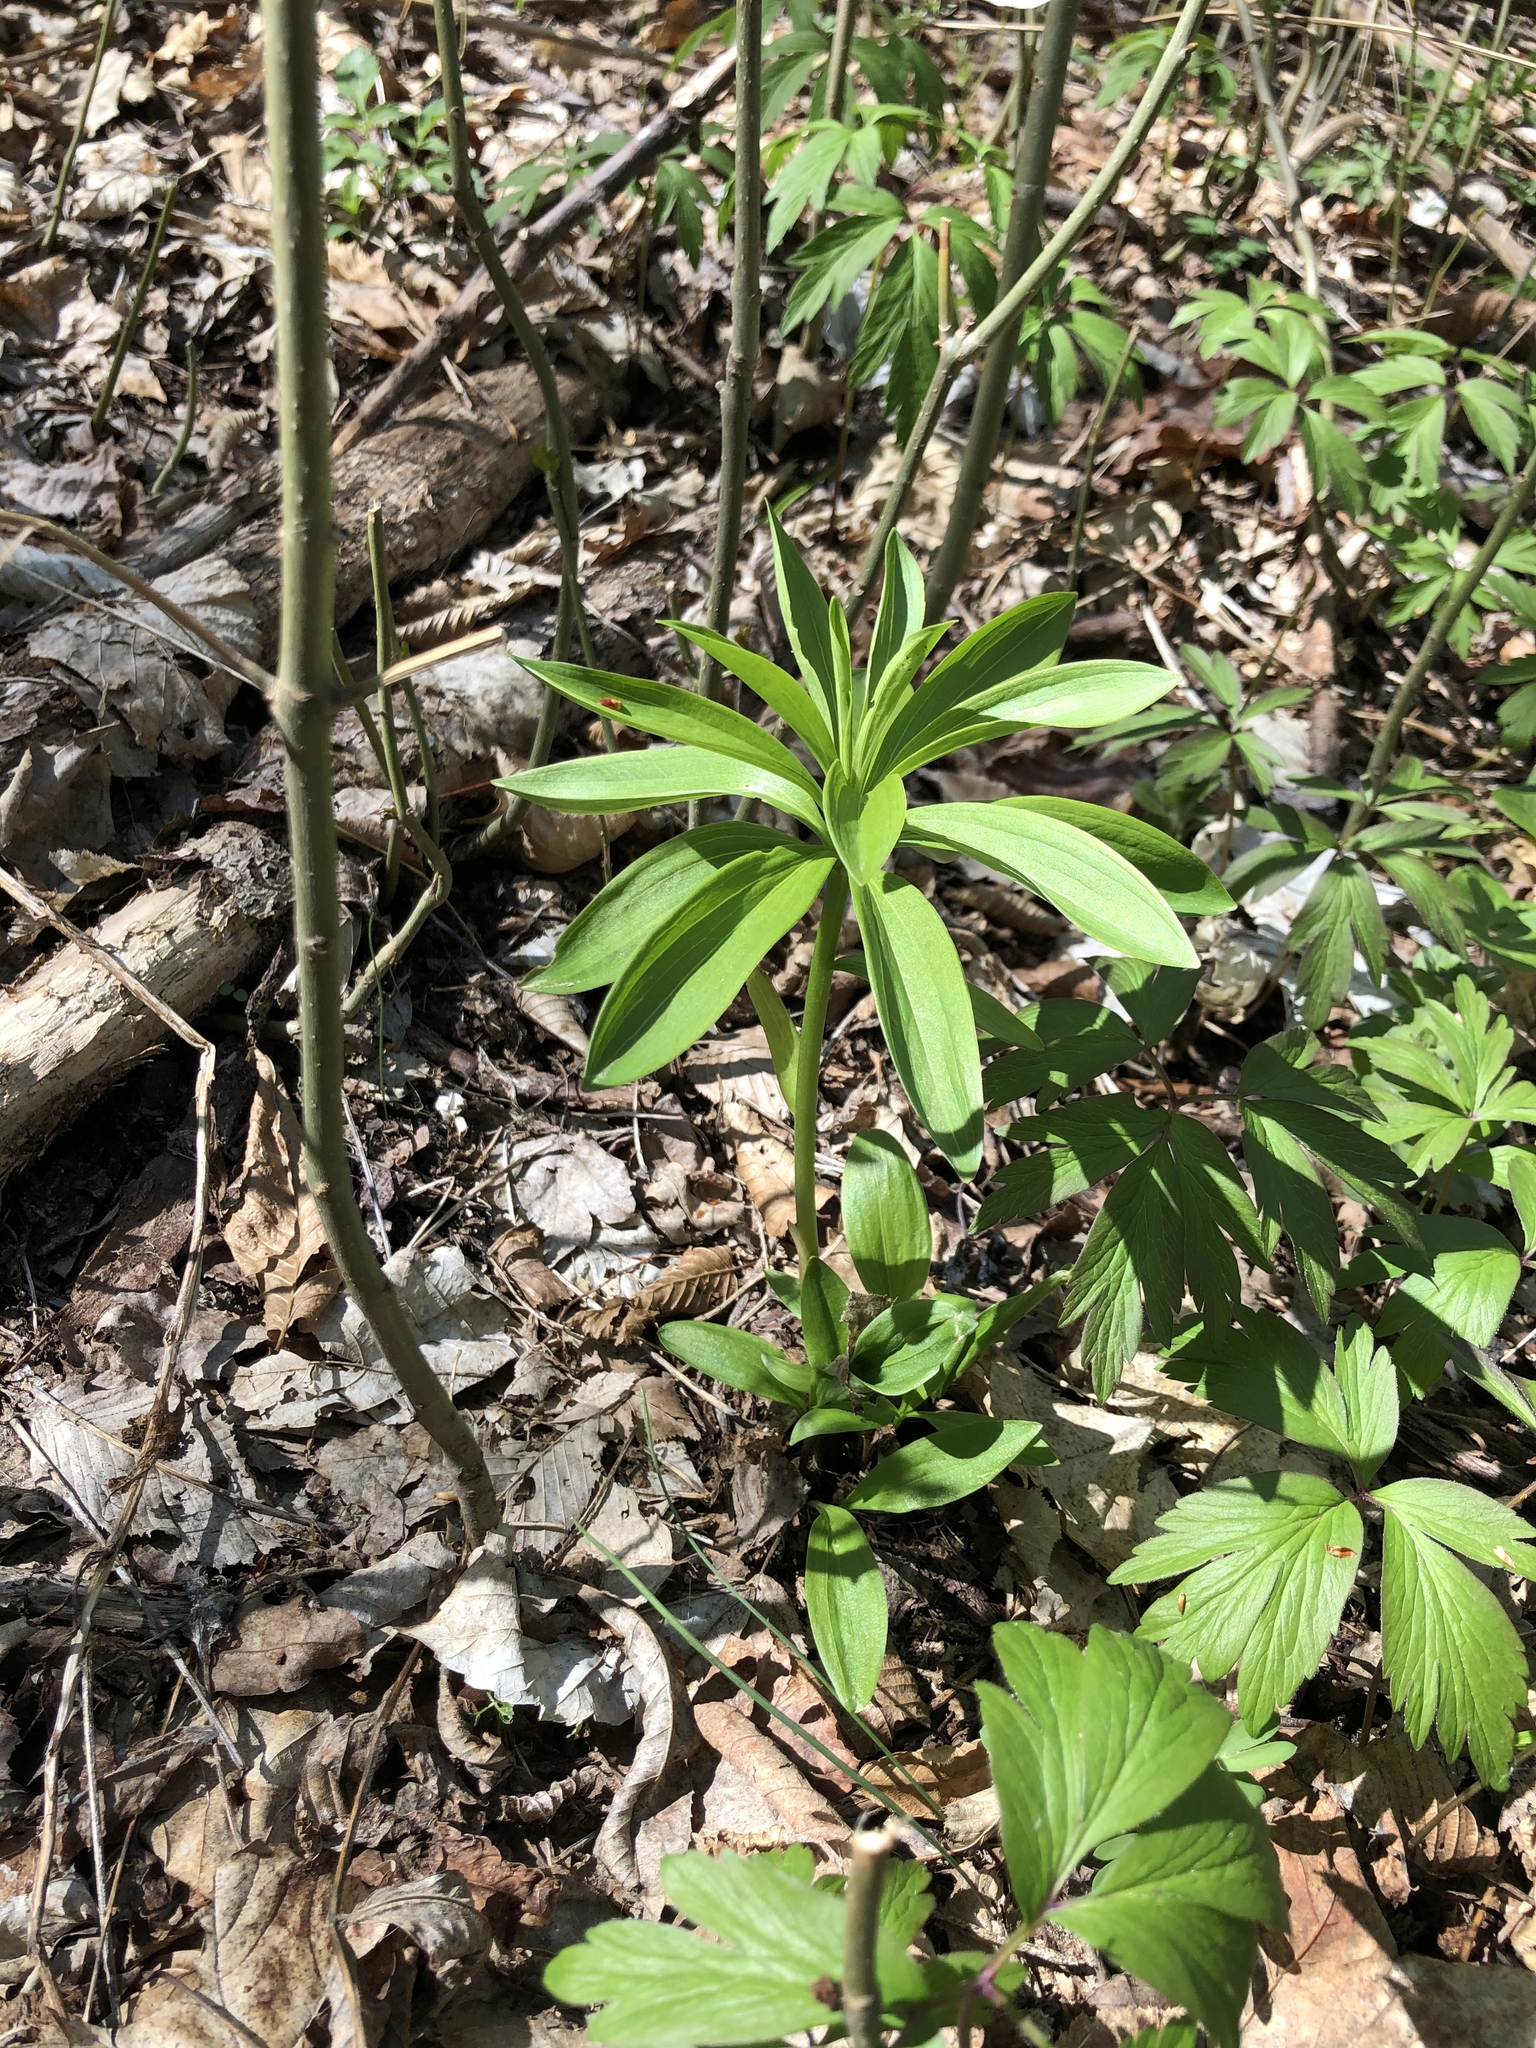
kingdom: Plantae
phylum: Tracheophyta
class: Liliopsida
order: Liliales
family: Liliaceae
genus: Lilium
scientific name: Lilium martagon
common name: Martagon lily
